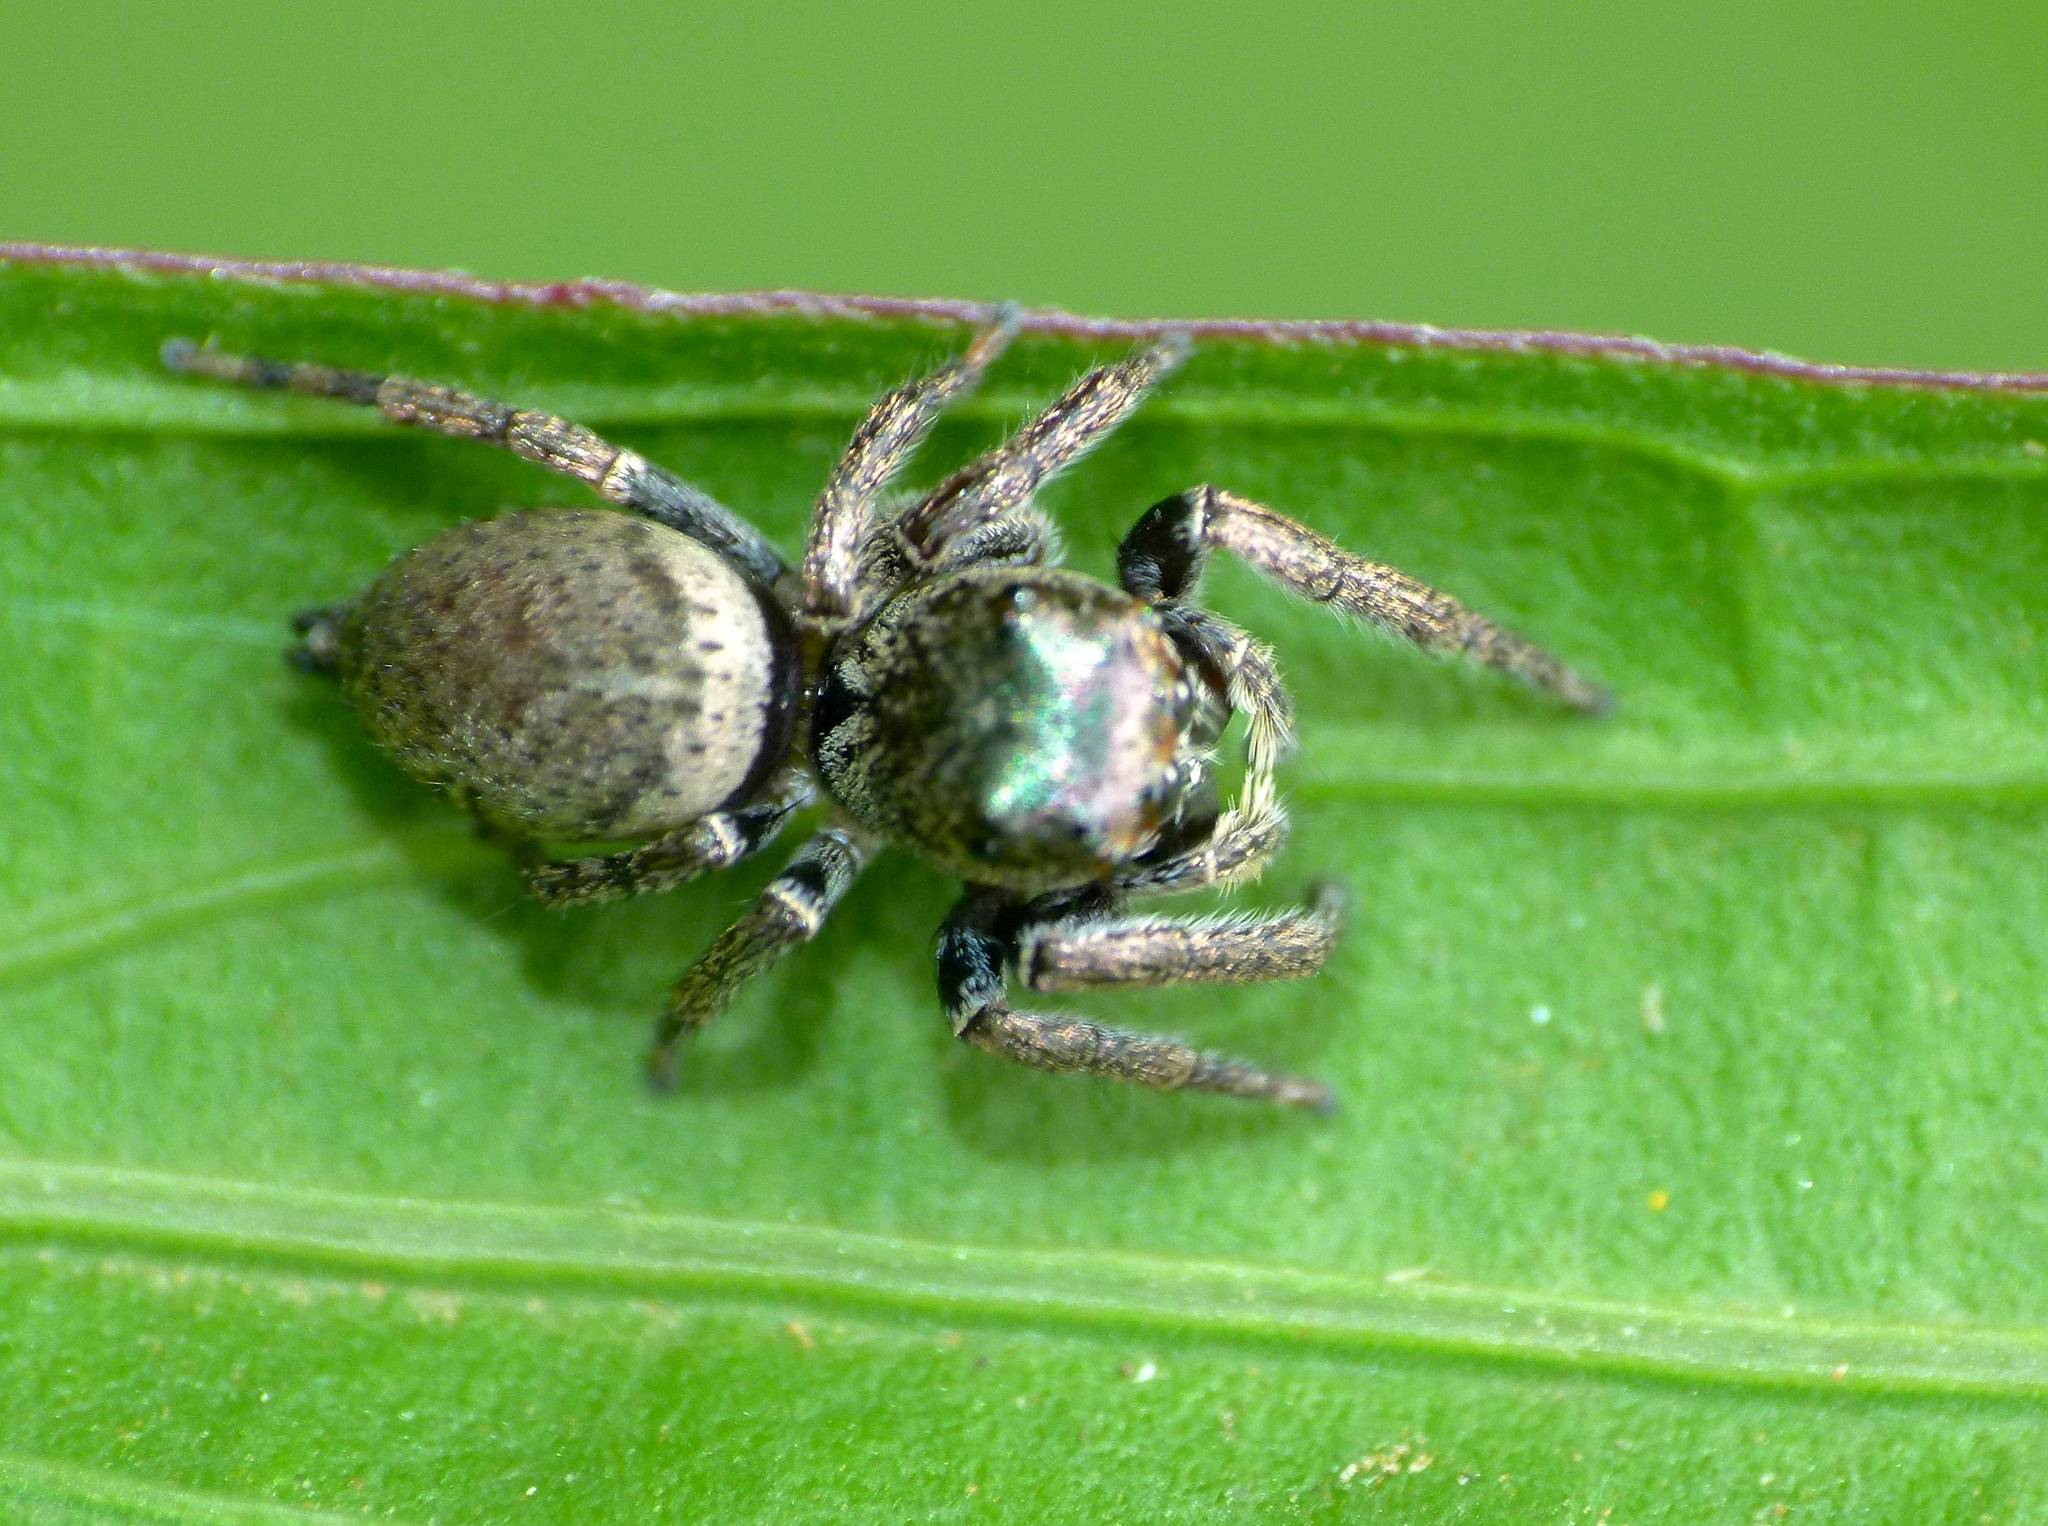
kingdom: Animalia
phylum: Arthropoda
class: Arachnida
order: Araneae
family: Salticidae
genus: Euryattus
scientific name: Euryattus bleekeri
